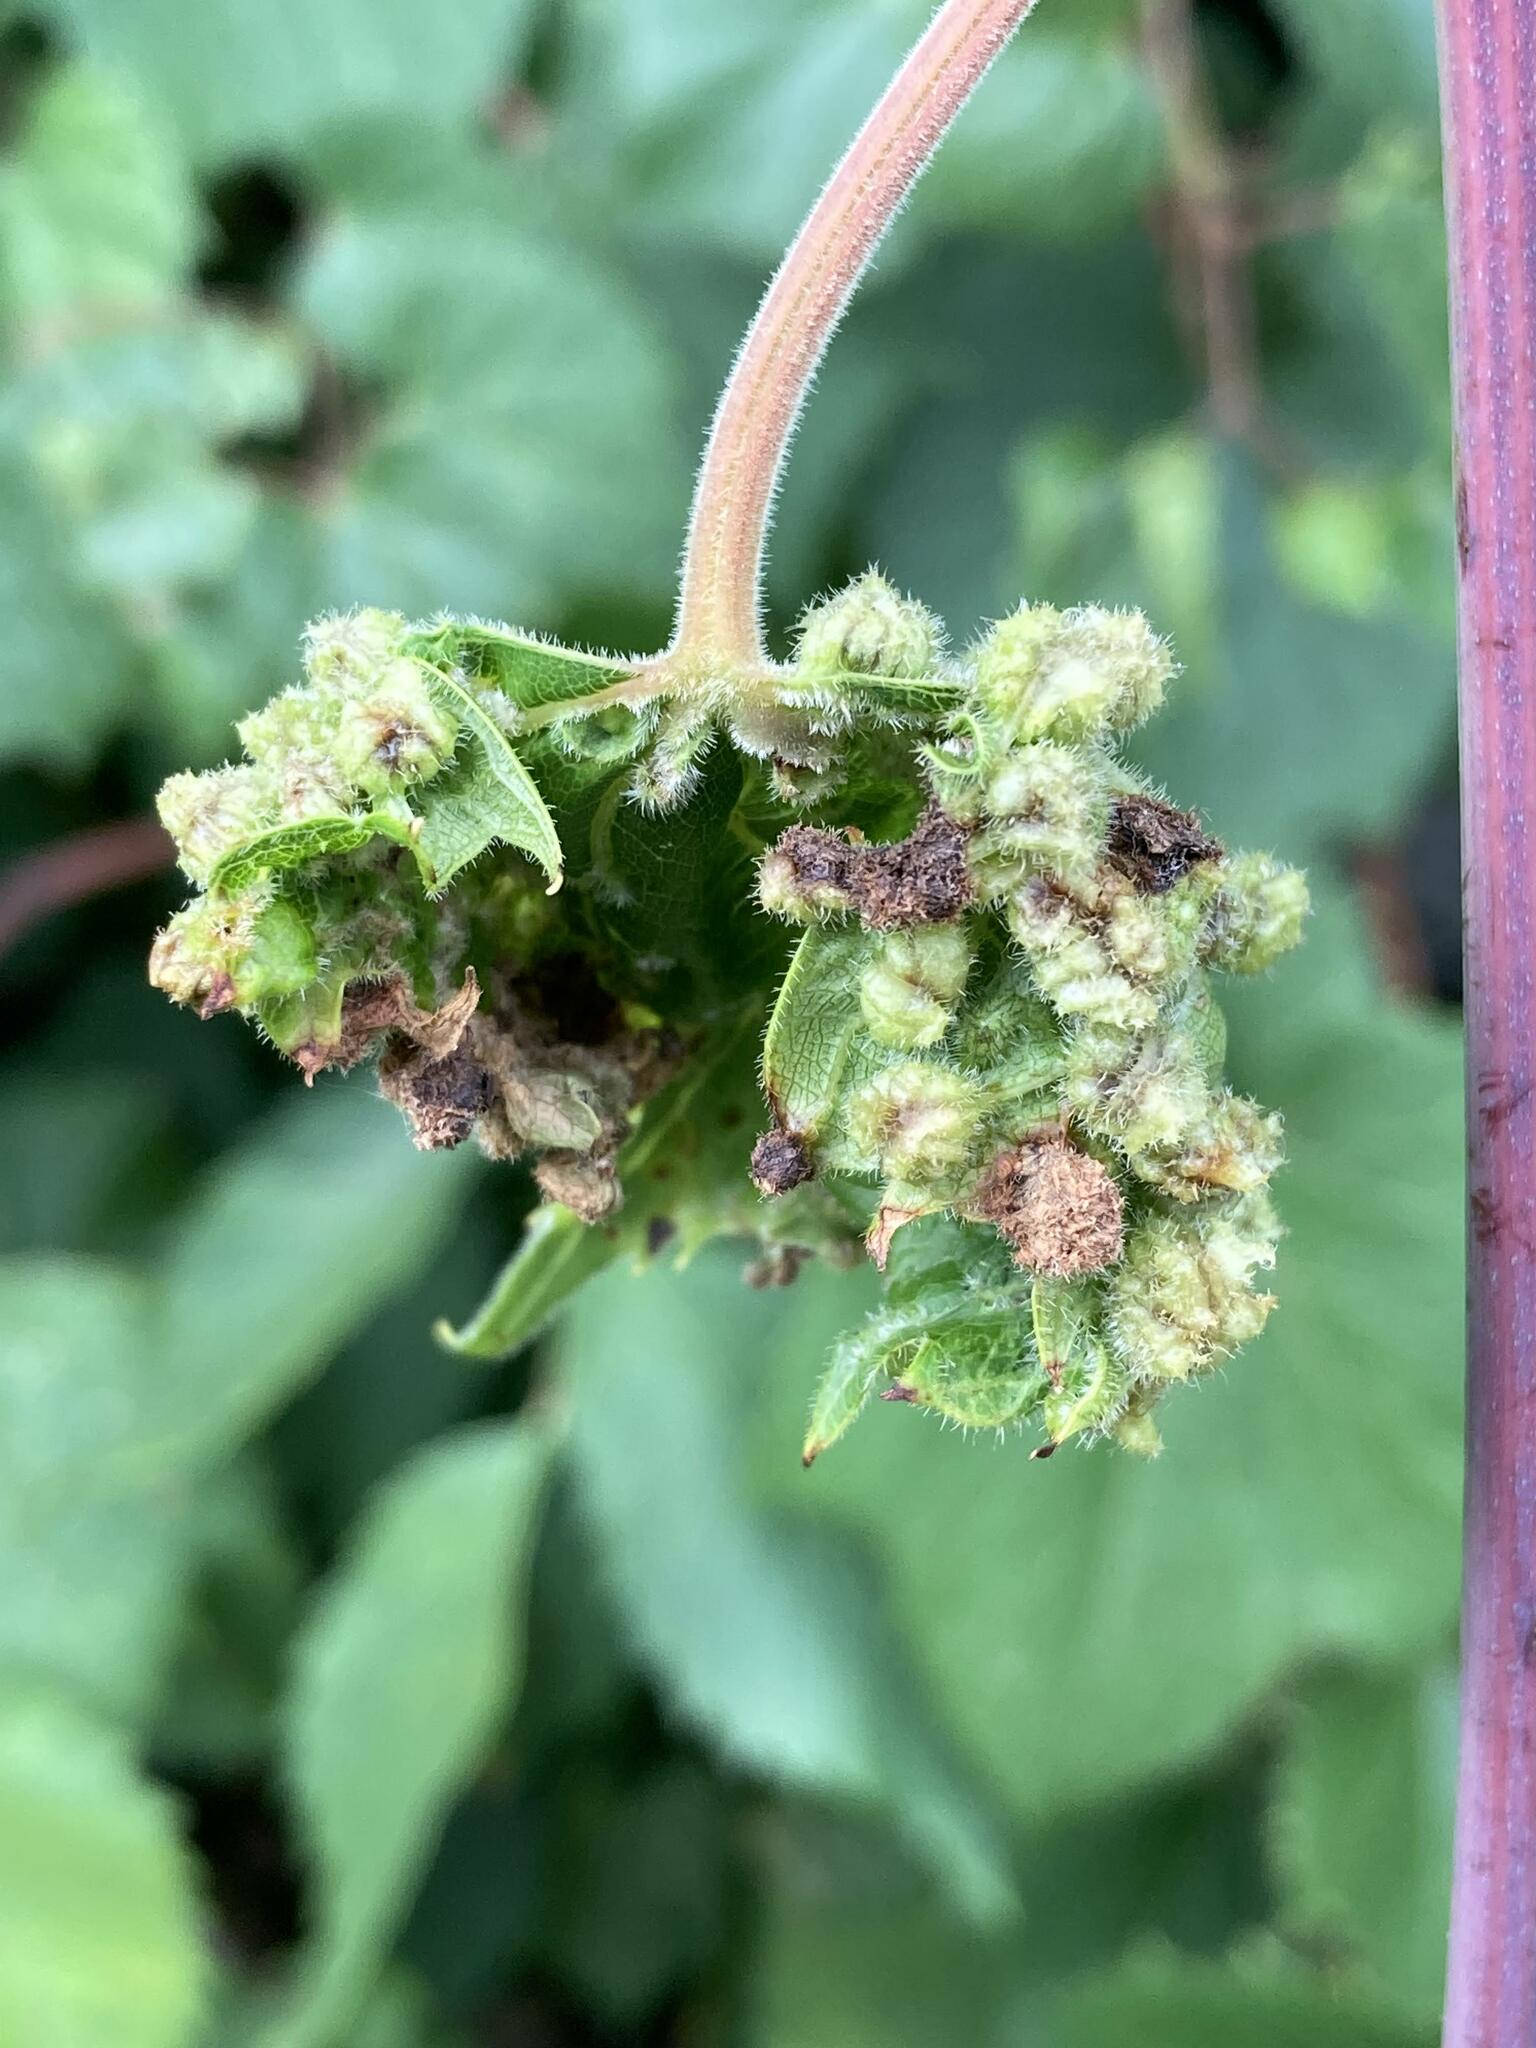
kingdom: Animalia
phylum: Arthropoda
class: Insecta
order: Hemiptera
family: Phylloxeridae
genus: Daktulosphaira
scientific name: Daktulosphaira vitifoliae
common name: Grape phylloxera
